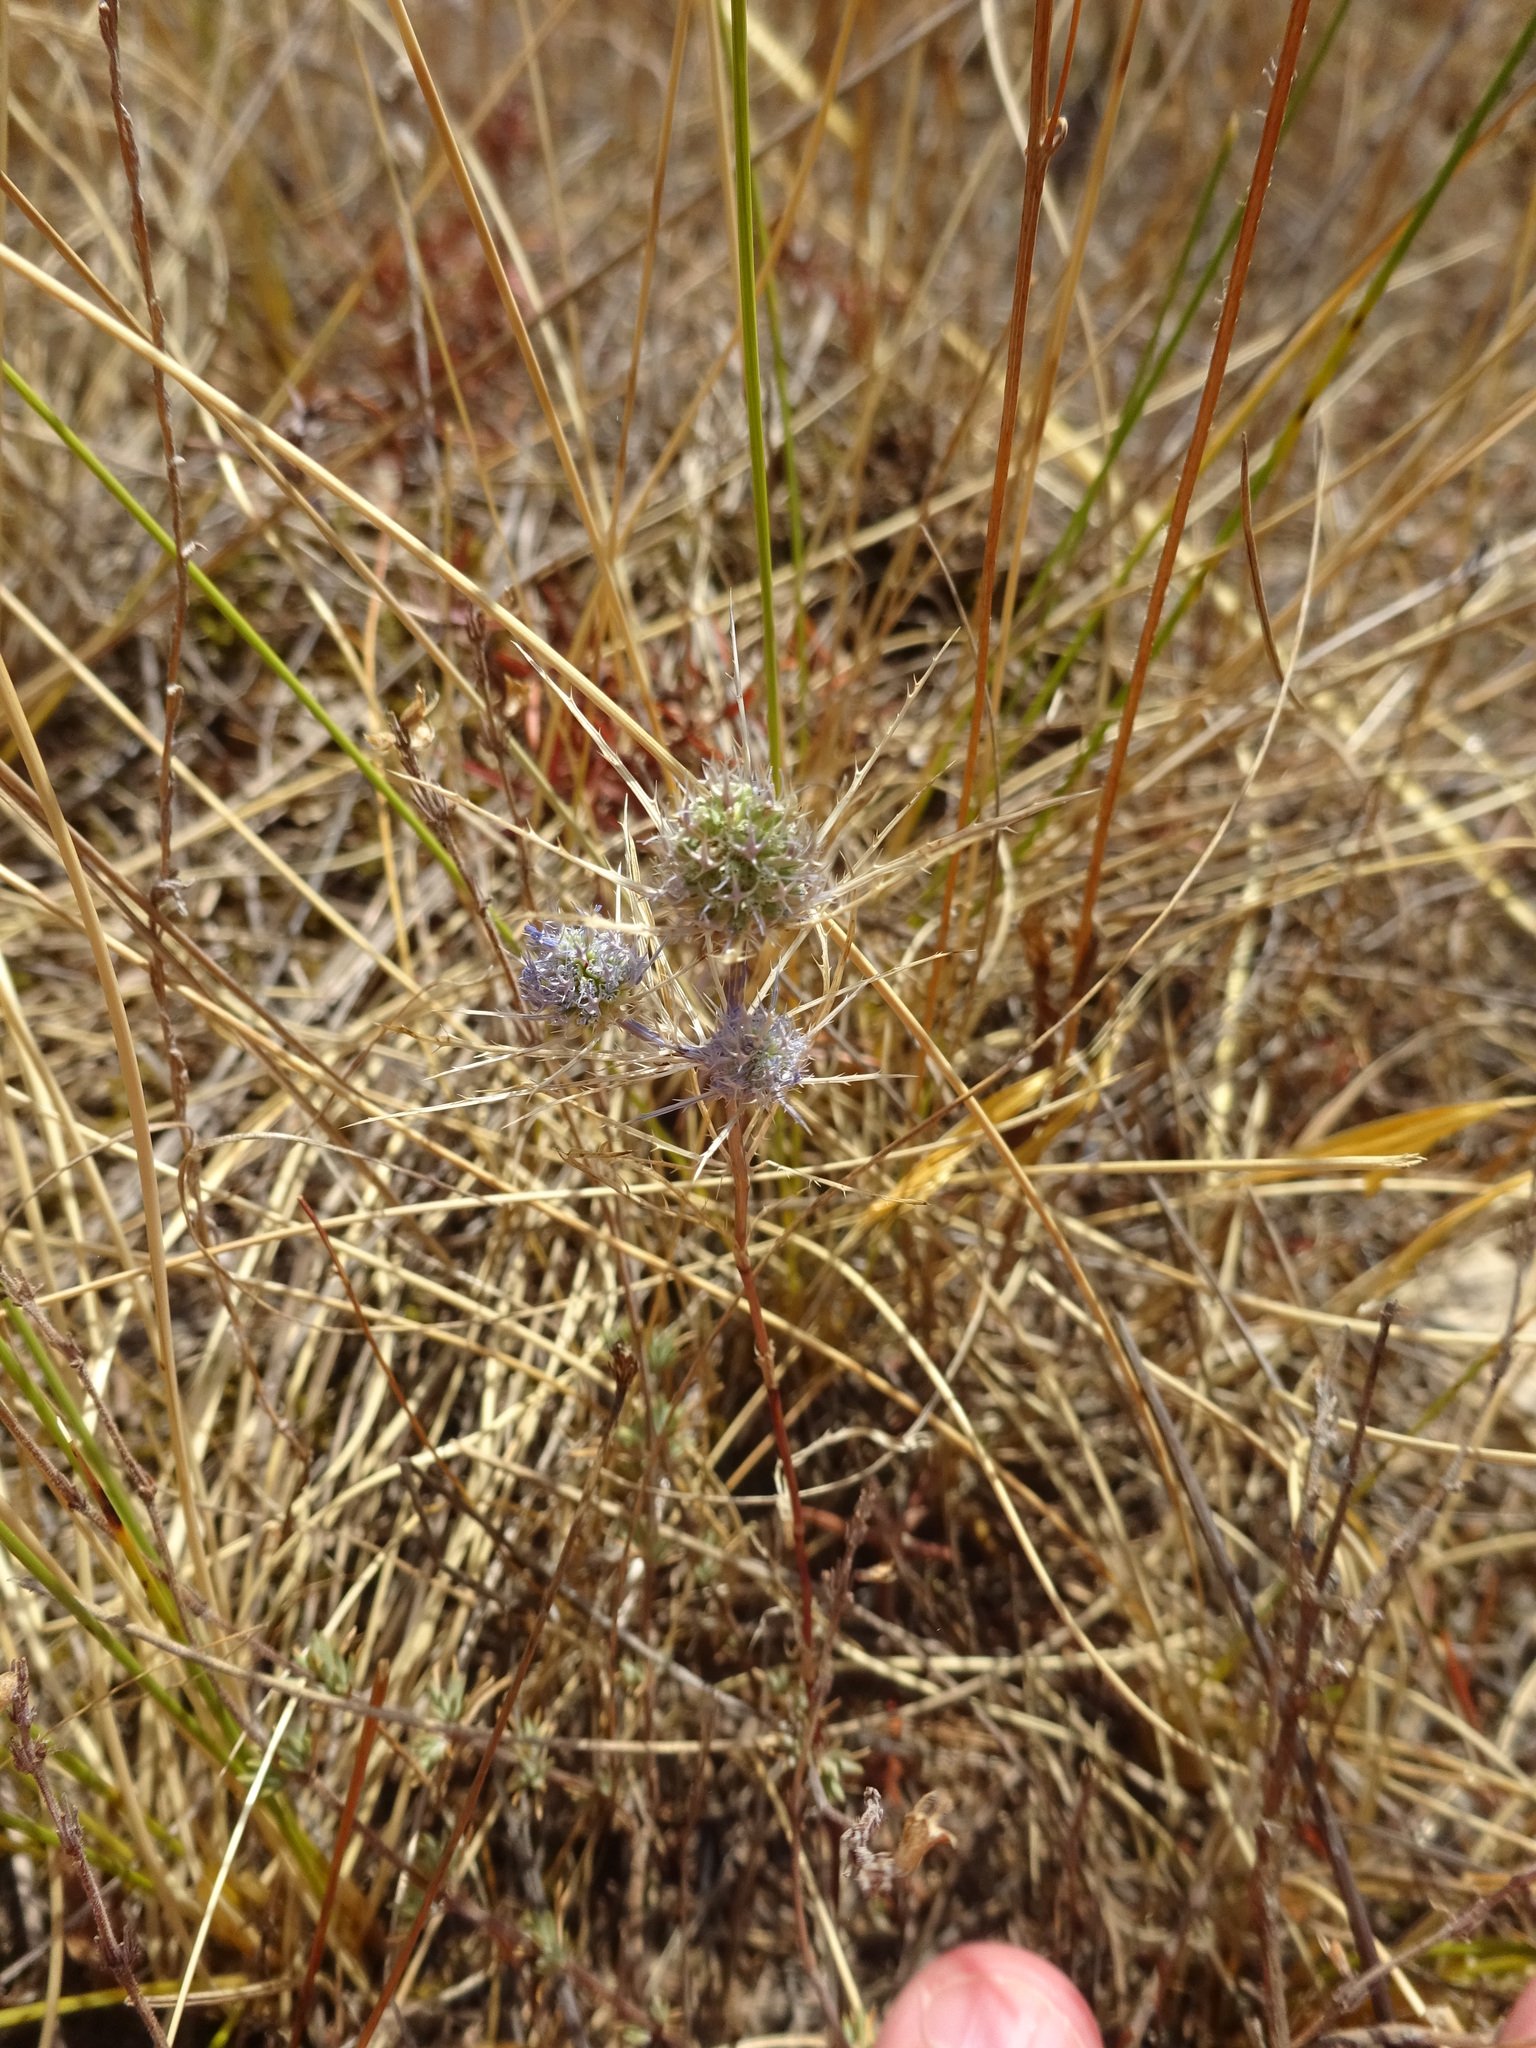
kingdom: Plantae
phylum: Tracheophyta
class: Magnoliopsida
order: Apiales
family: Apiaceae
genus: Eryngium
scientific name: Eryngium tenue
